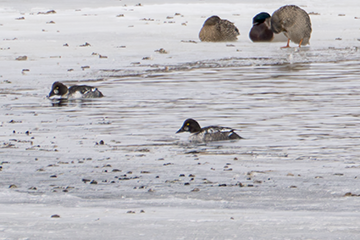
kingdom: Animalia
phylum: Chordata
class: Aves
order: Anseriformes
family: Anatidae
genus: Bucephala
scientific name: Bucephala clangula
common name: Common goldeneye
